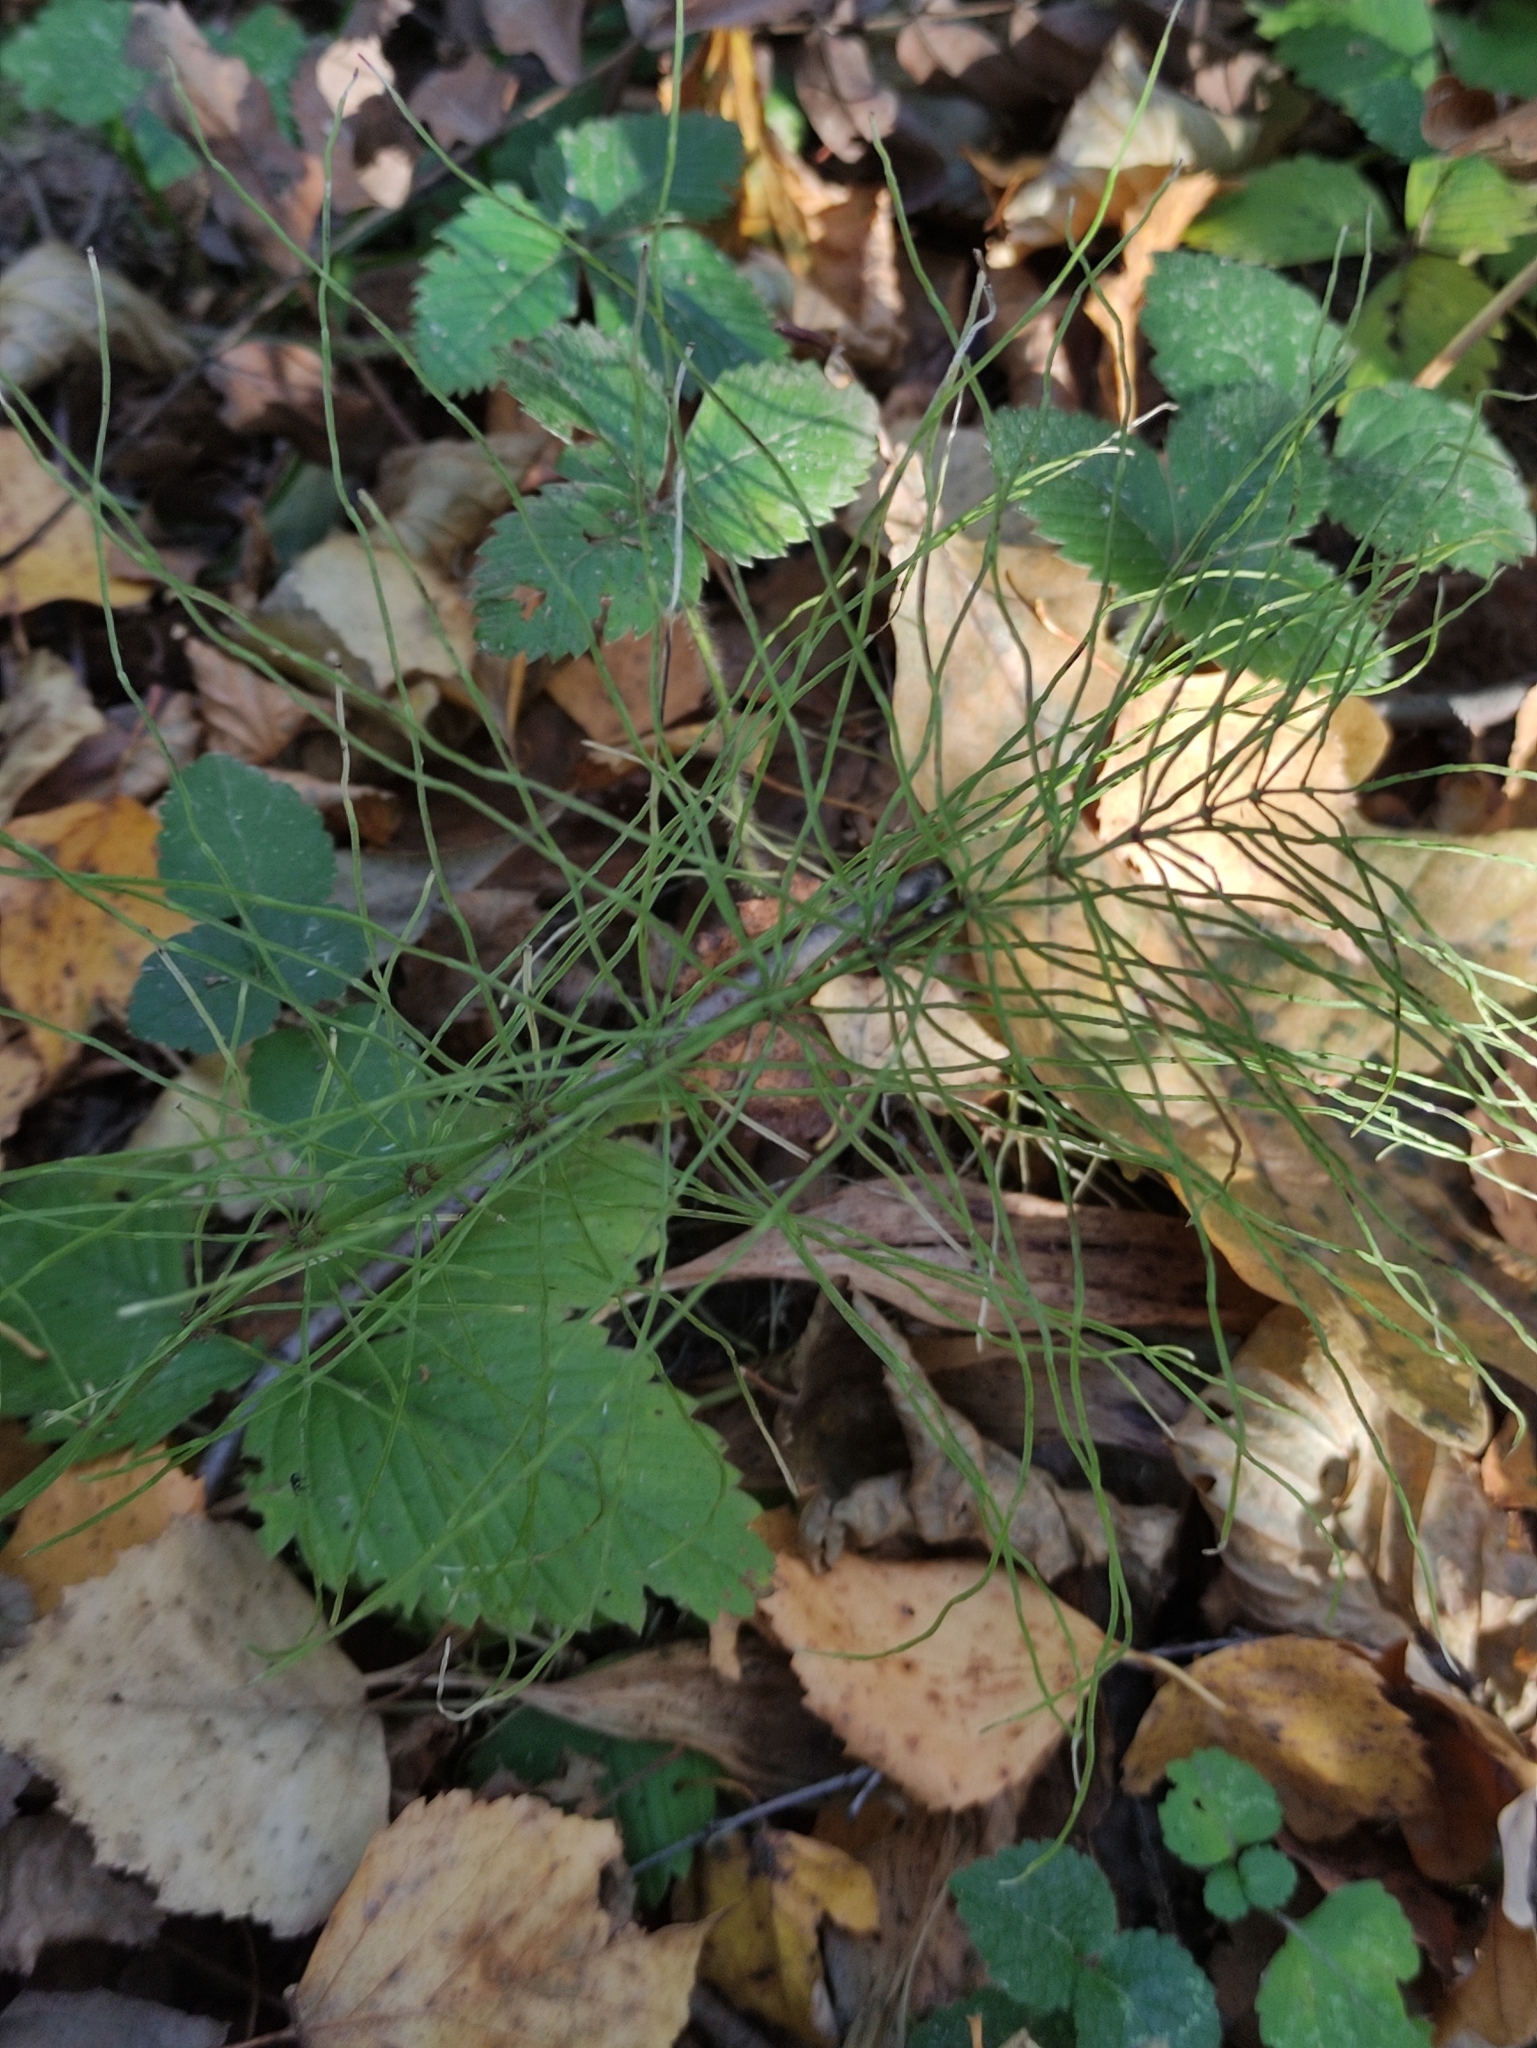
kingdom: Plantae
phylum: Tracheophyta
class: Polypodiopsida
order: Equisetales
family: Equisetaceae
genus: Equisetum
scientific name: Equisetum pratense
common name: Meadow horsetail
